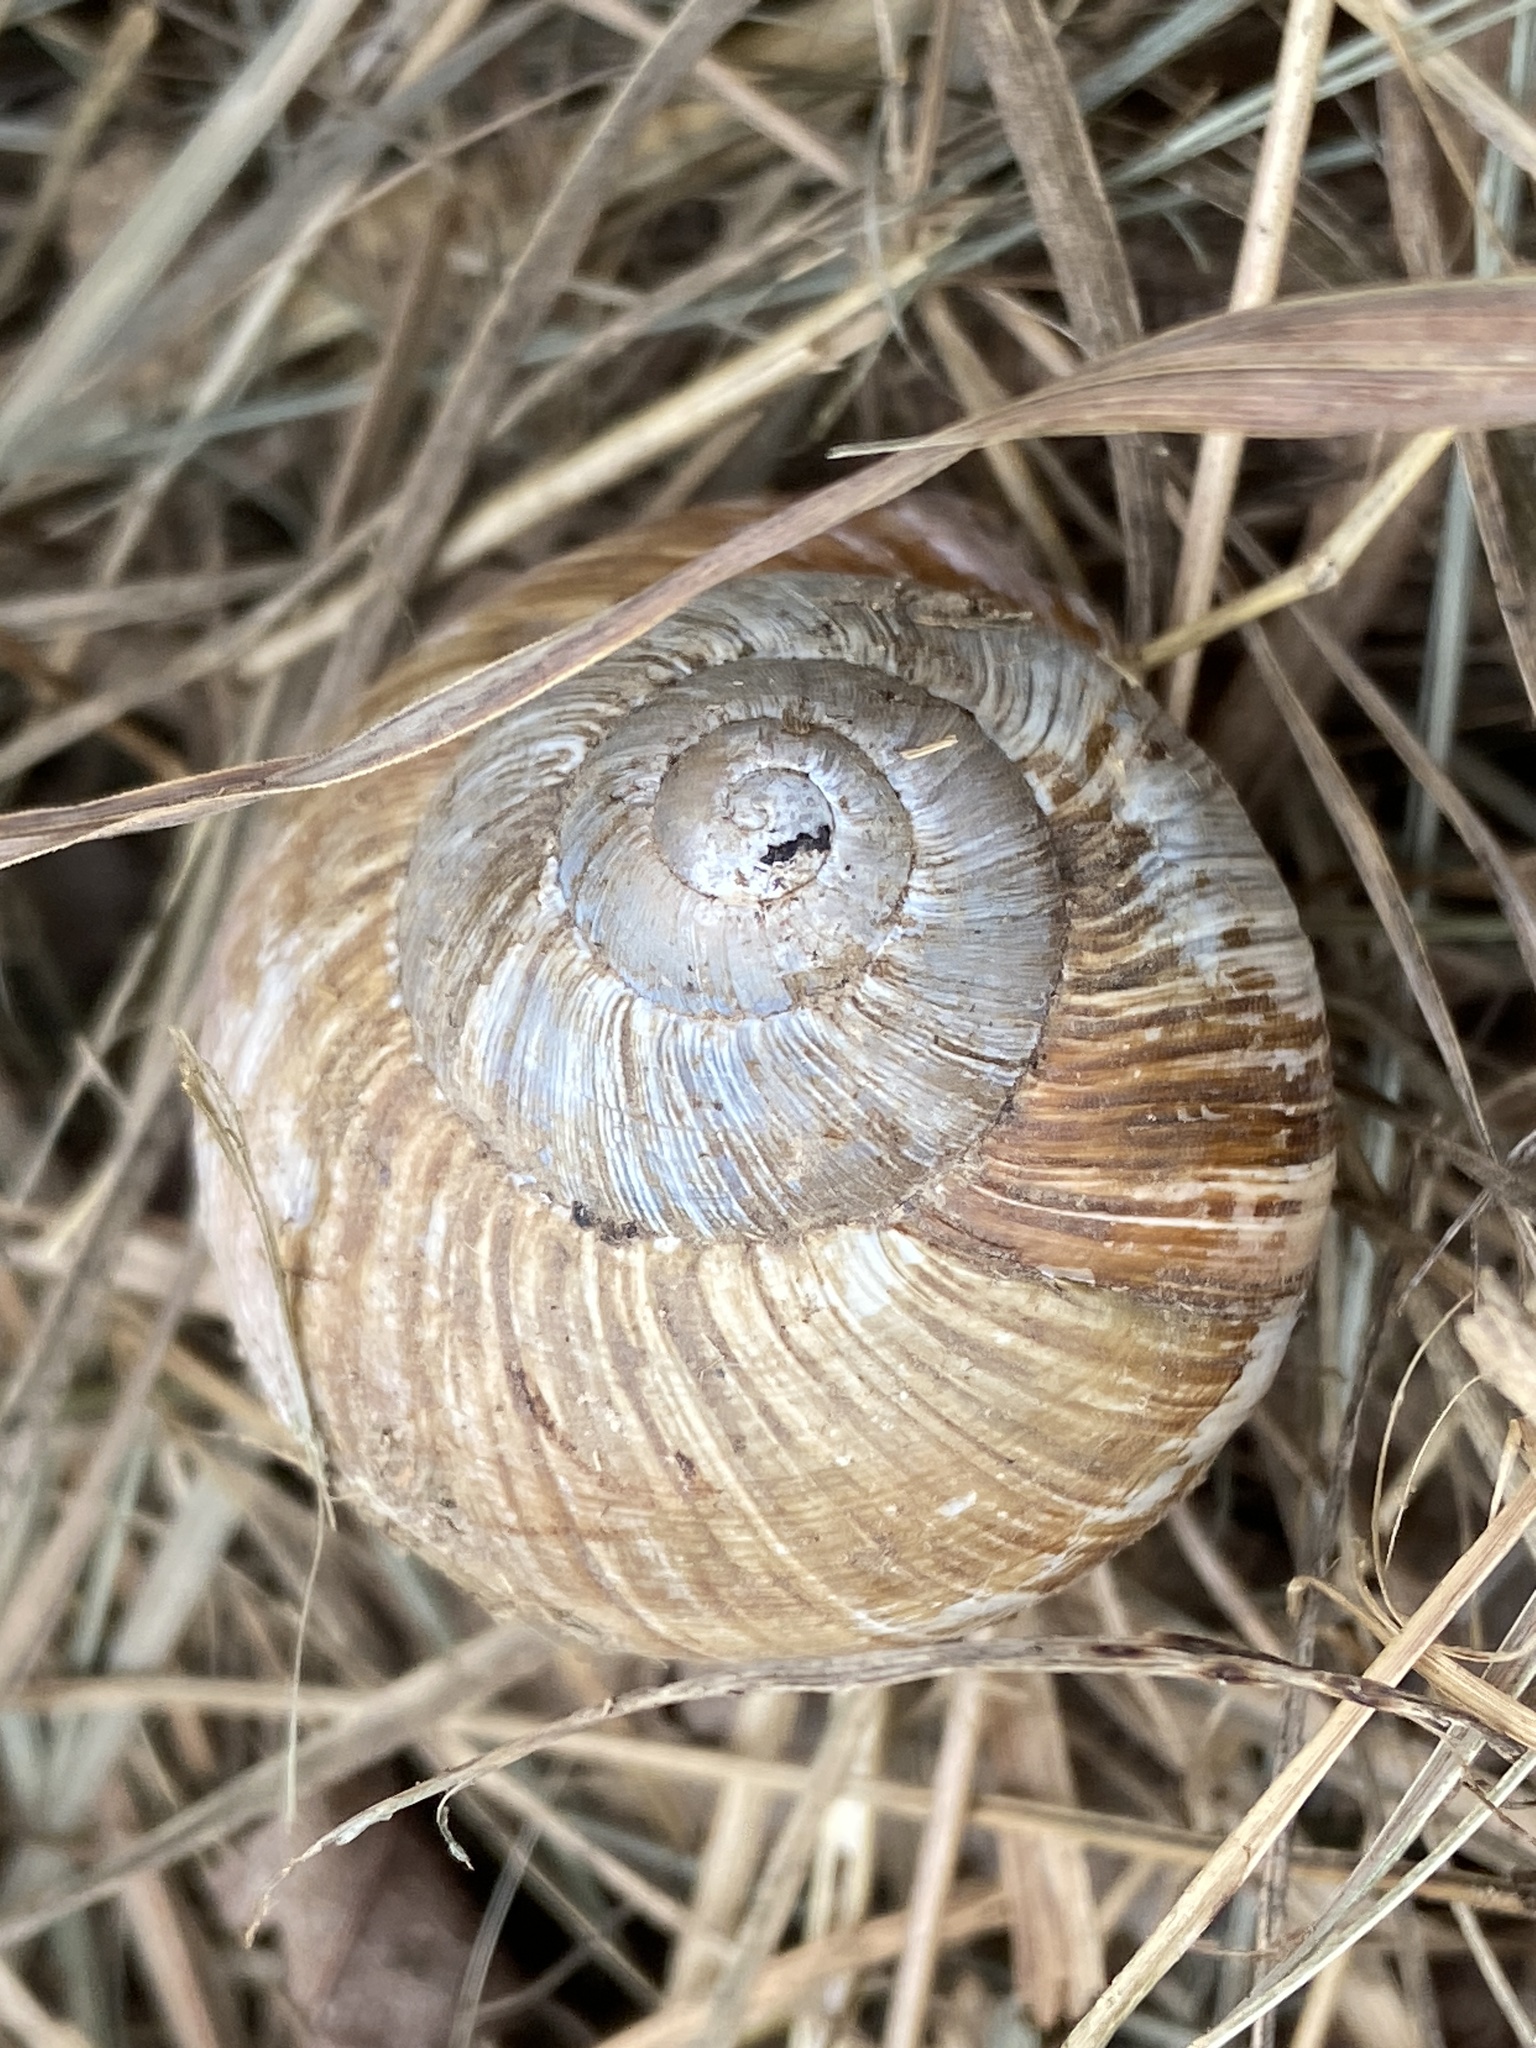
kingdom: Animalia
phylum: Mollusca
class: Gastropoda
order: Stylommatophora
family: Helicidae
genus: Helix
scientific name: Helix pomatia
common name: Roman snail
